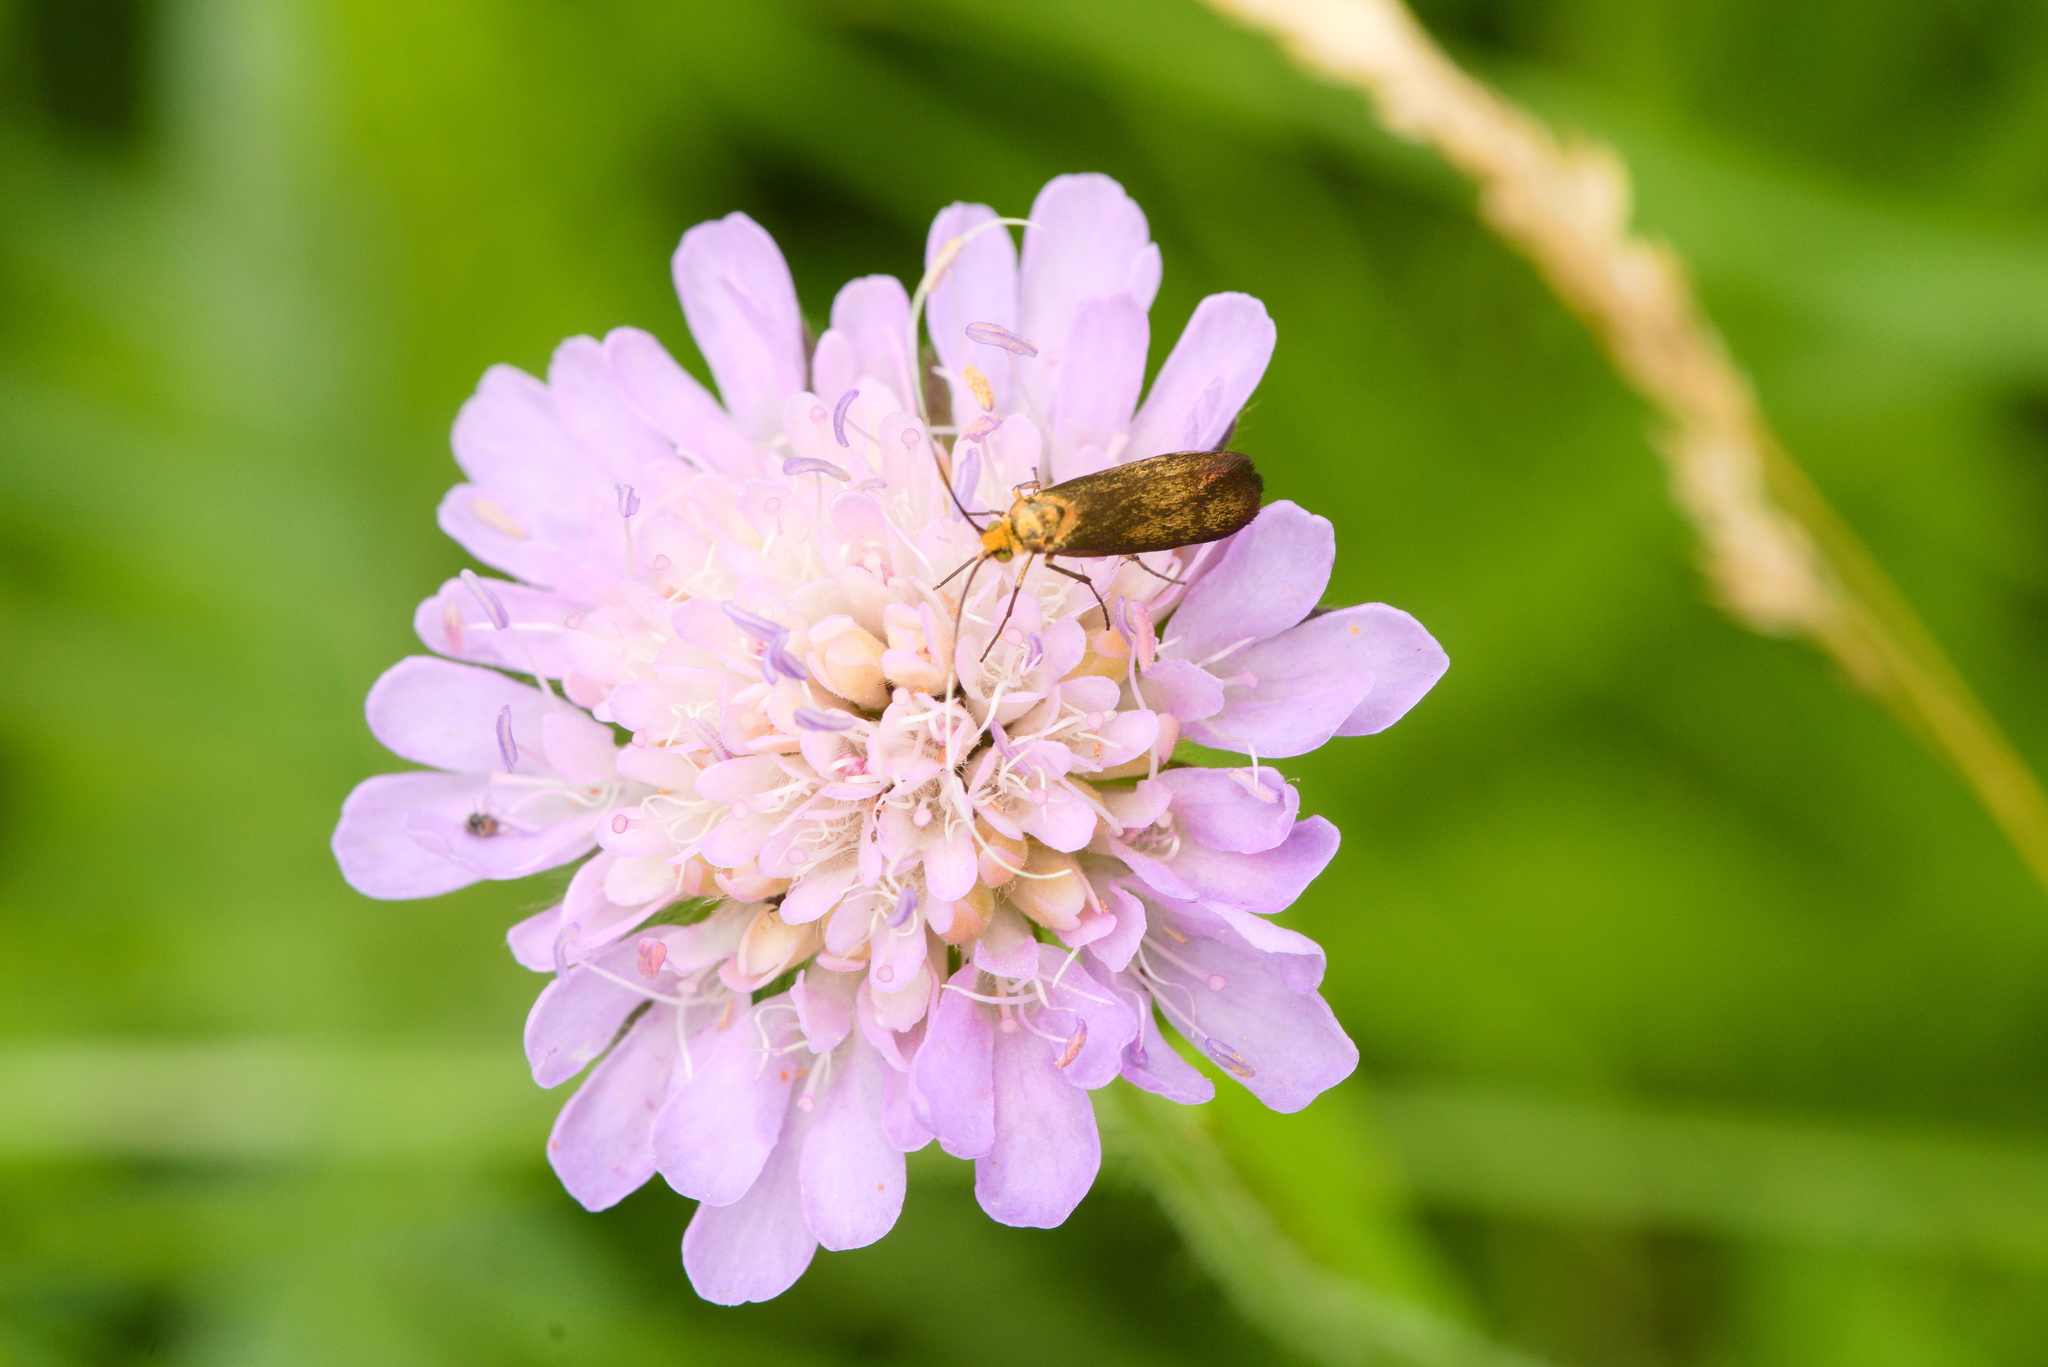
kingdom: Animalia
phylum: Arthropoda
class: Insecta
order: Lepidoptera
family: Adelidae
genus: Nemophora
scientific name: Nemophora metallica
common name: Brassy long-horn
